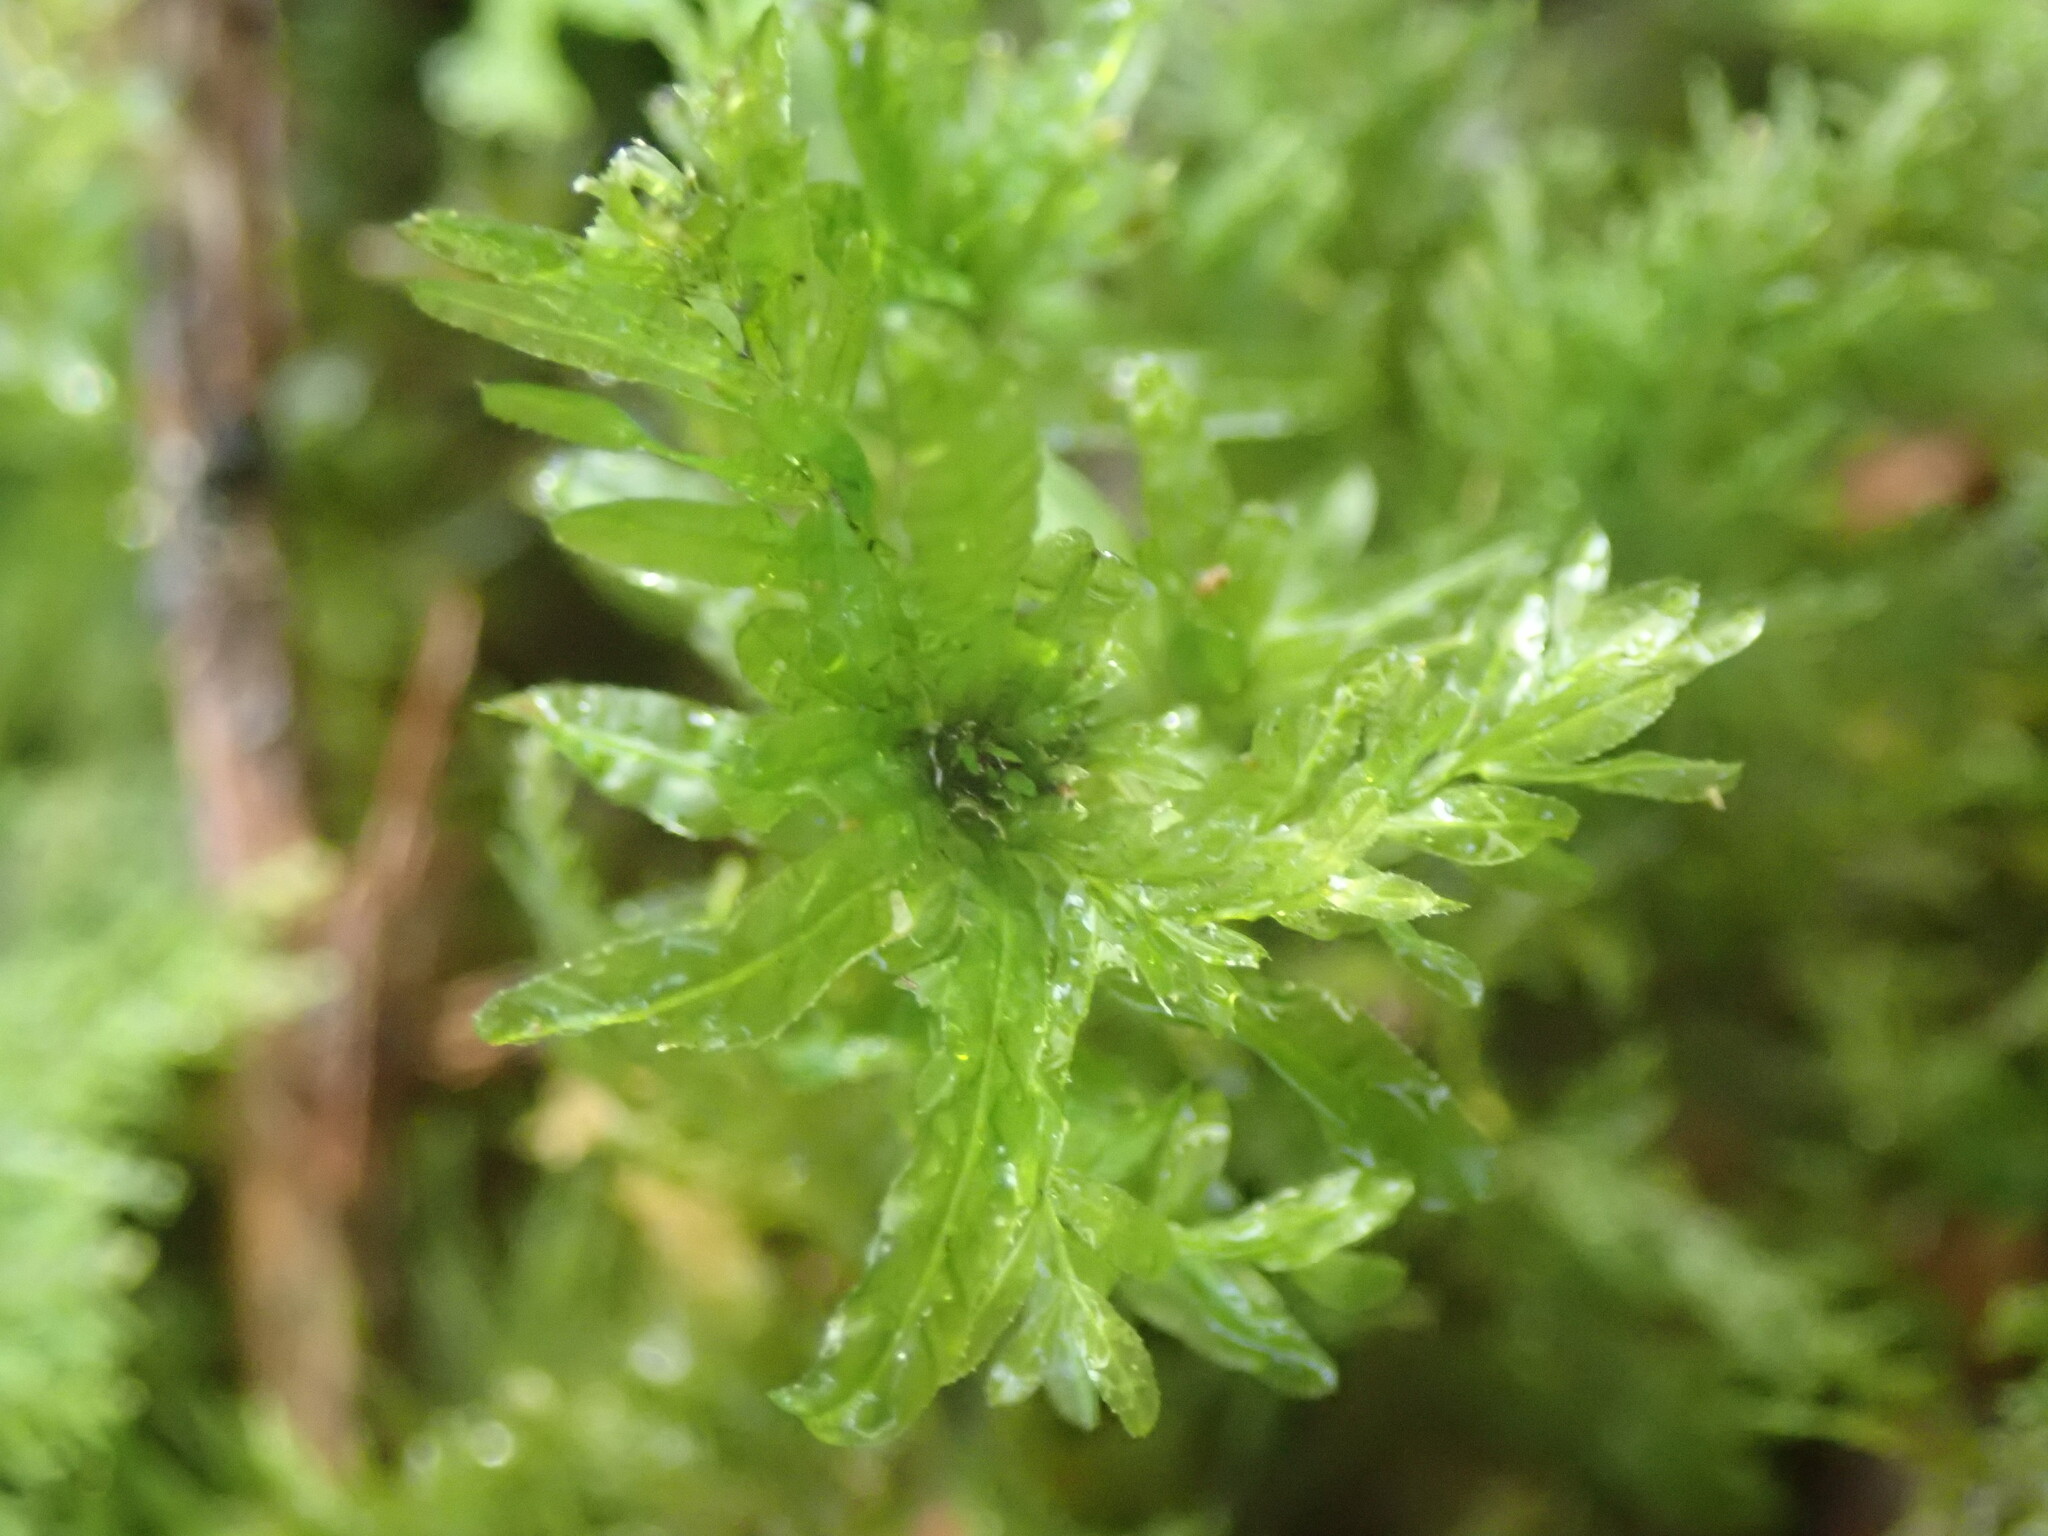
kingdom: Plantae
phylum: Bryophyta
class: Bryopsida
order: Bryales
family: Mniaceae
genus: Plagiomnium
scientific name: Plagiomnium undulatum
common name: Hart's-tongue thyme-moss
